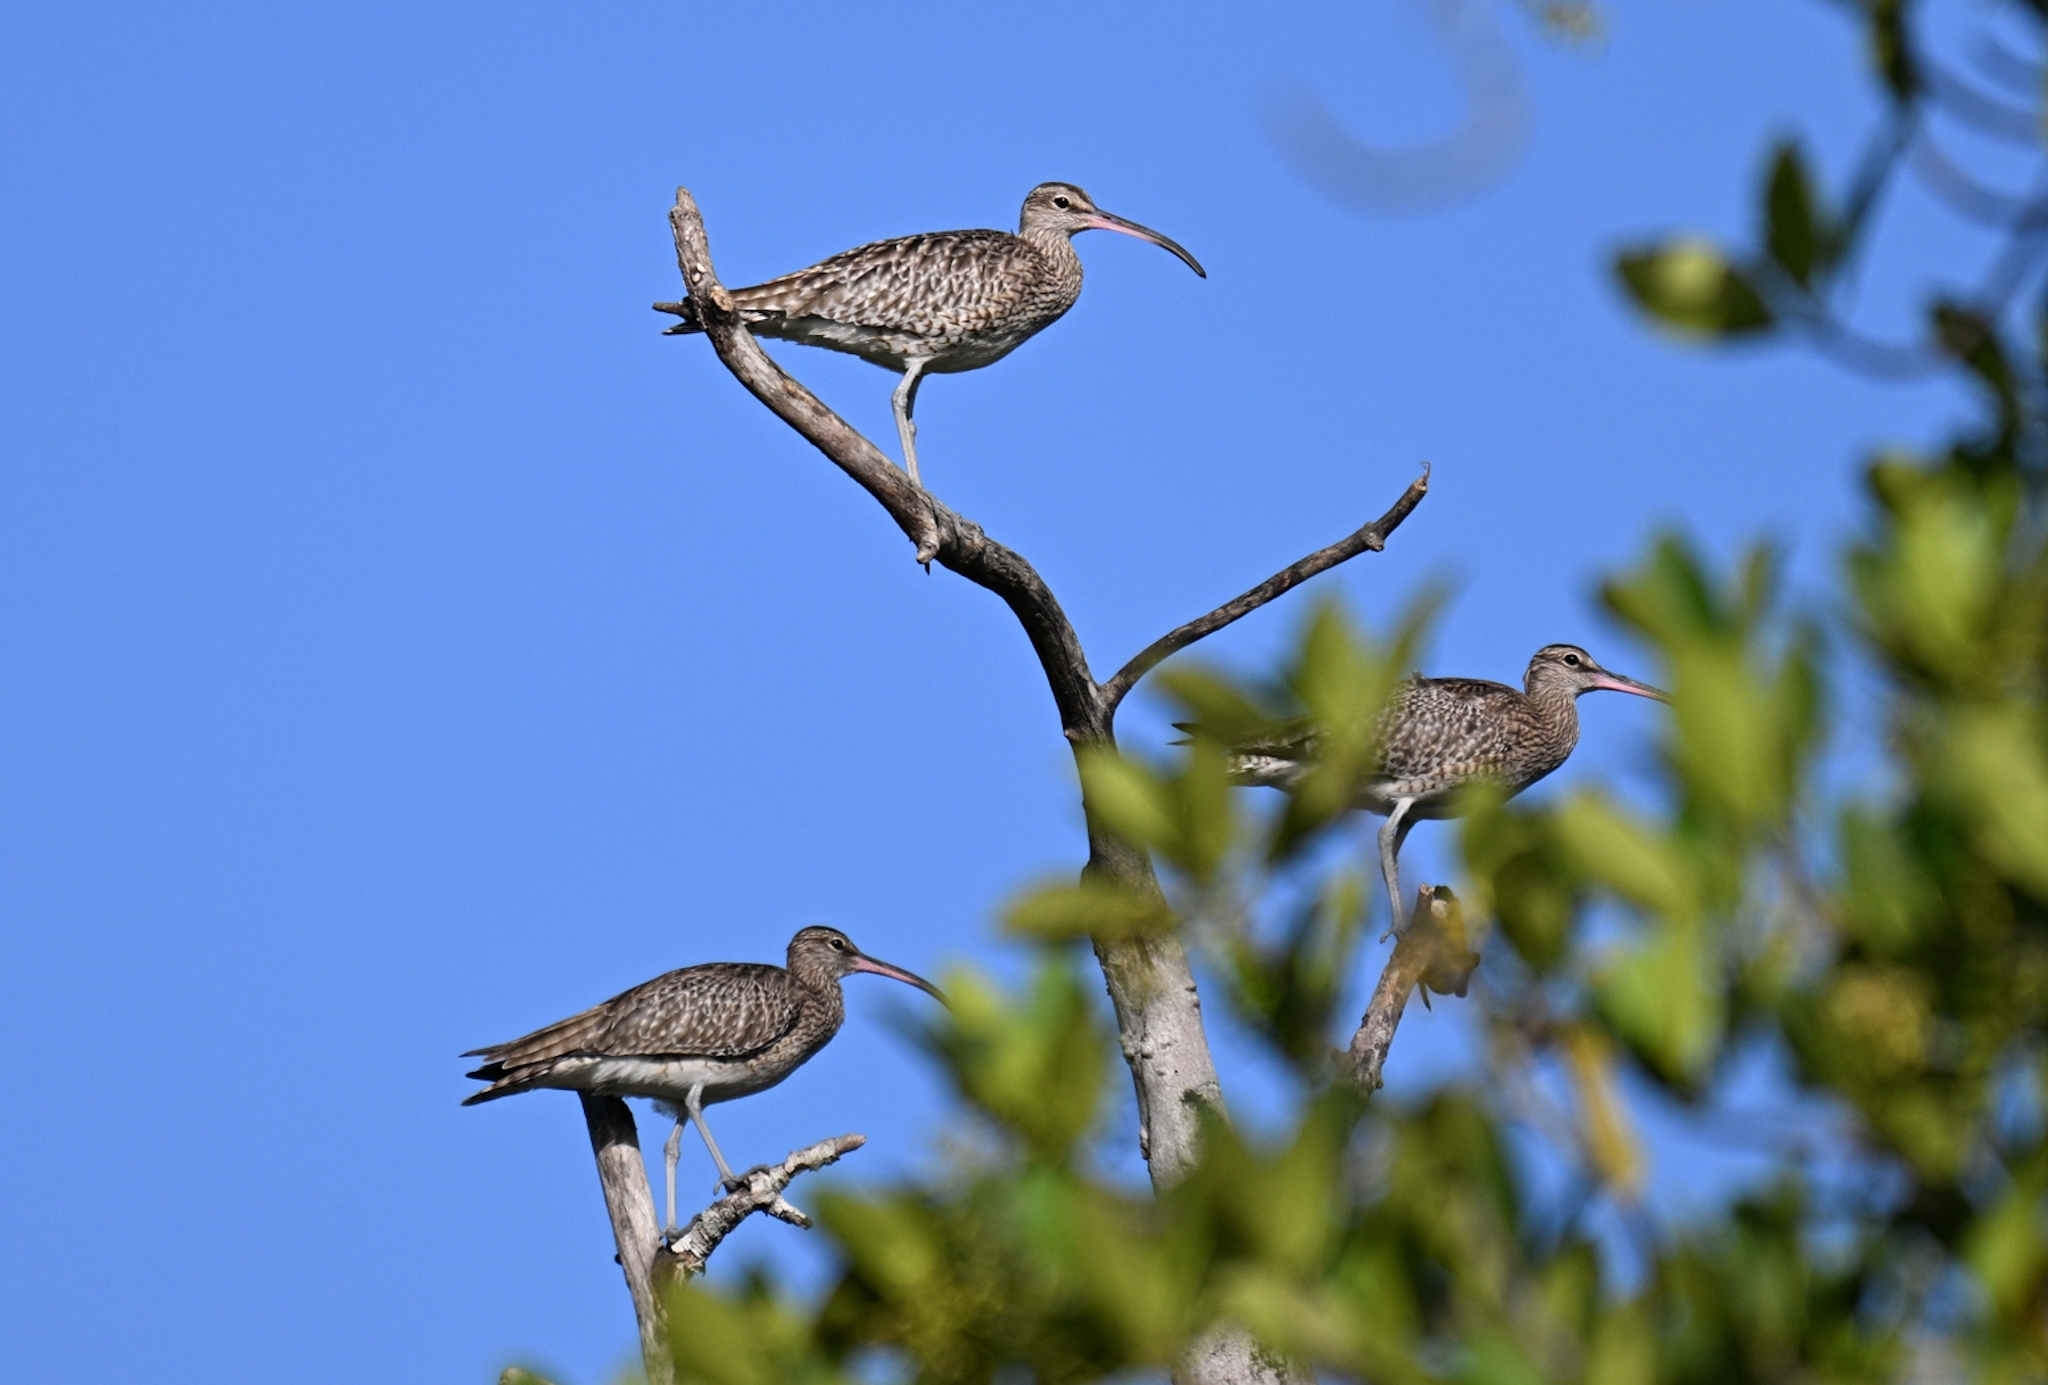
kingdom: Animalia
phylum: Chordata
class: Aves
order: Charadriiformes
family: Scolopacidae
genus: Numenius
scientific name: Numenius phaeopus
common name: Whimbrel
